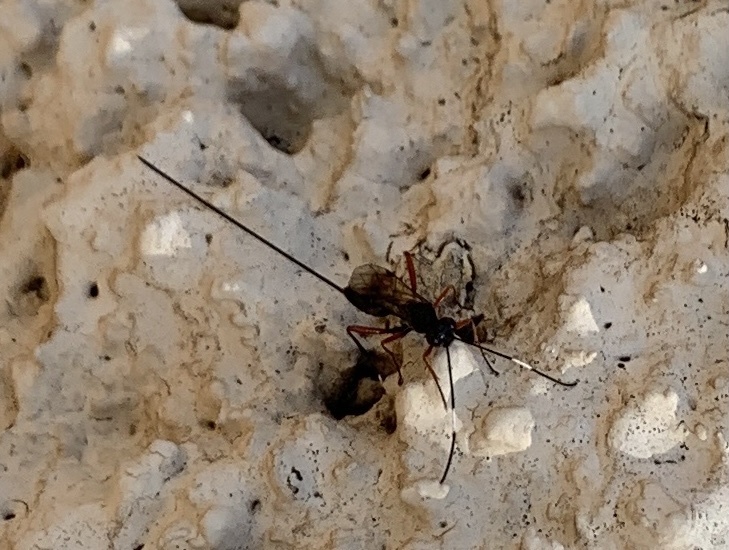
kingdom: Animalia
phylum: Arthropoda
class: Insecta
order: Hymenoptera
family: Ichneumonidae
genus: Stenarella
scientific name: Stenarella domator
